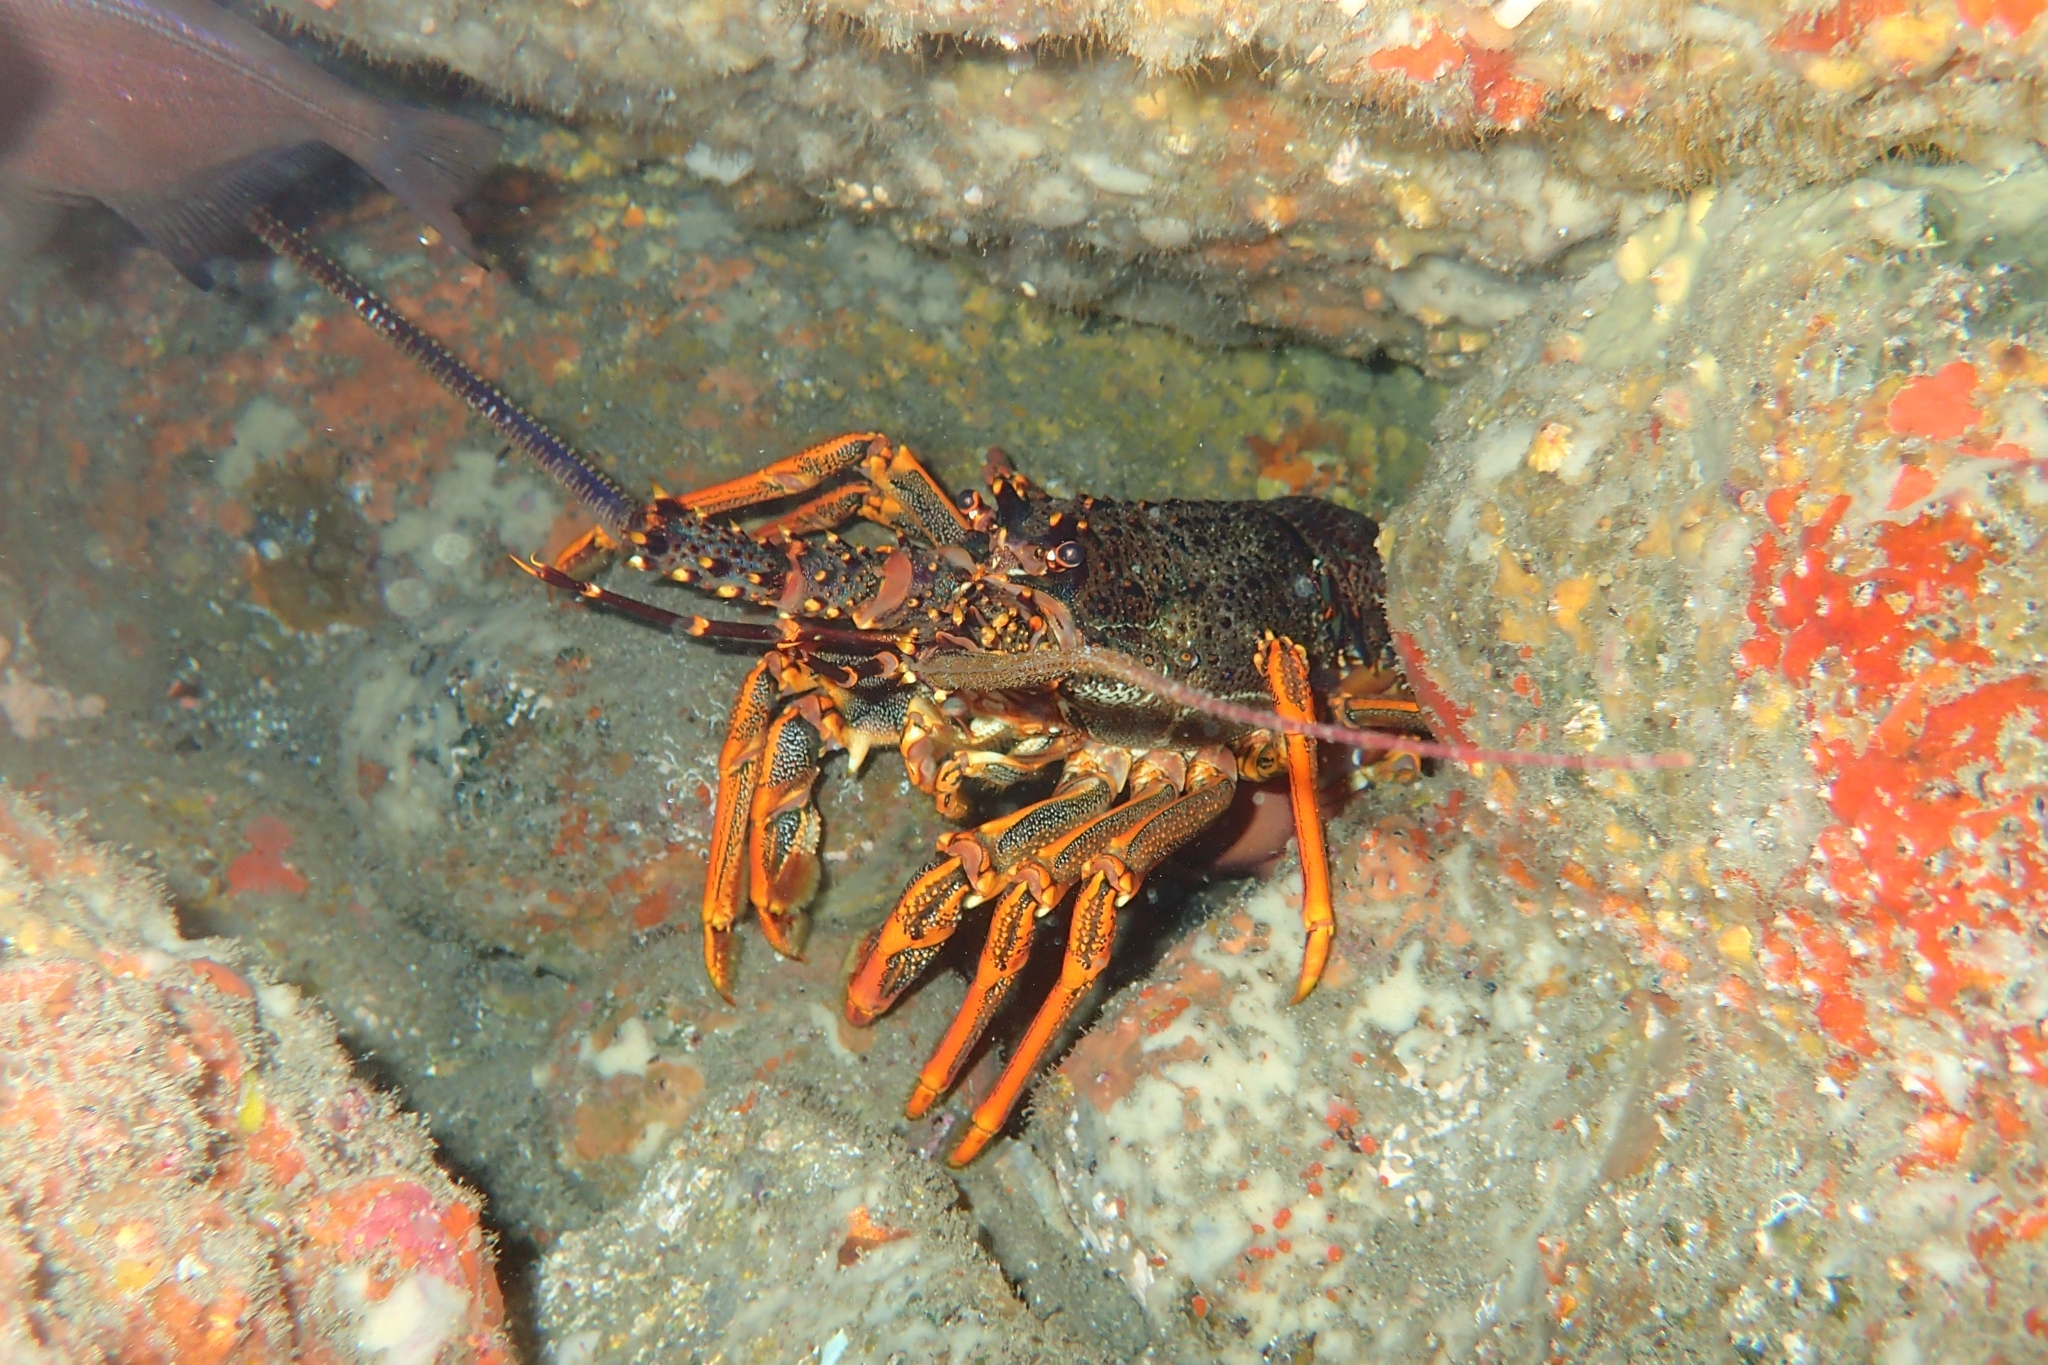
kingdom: Animalia
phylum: Arthropoda
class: Malacostraca
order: Decapoda
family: Palinuridae
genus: Jasus
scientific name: Jasus edwardsii
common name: Red rock lobster
